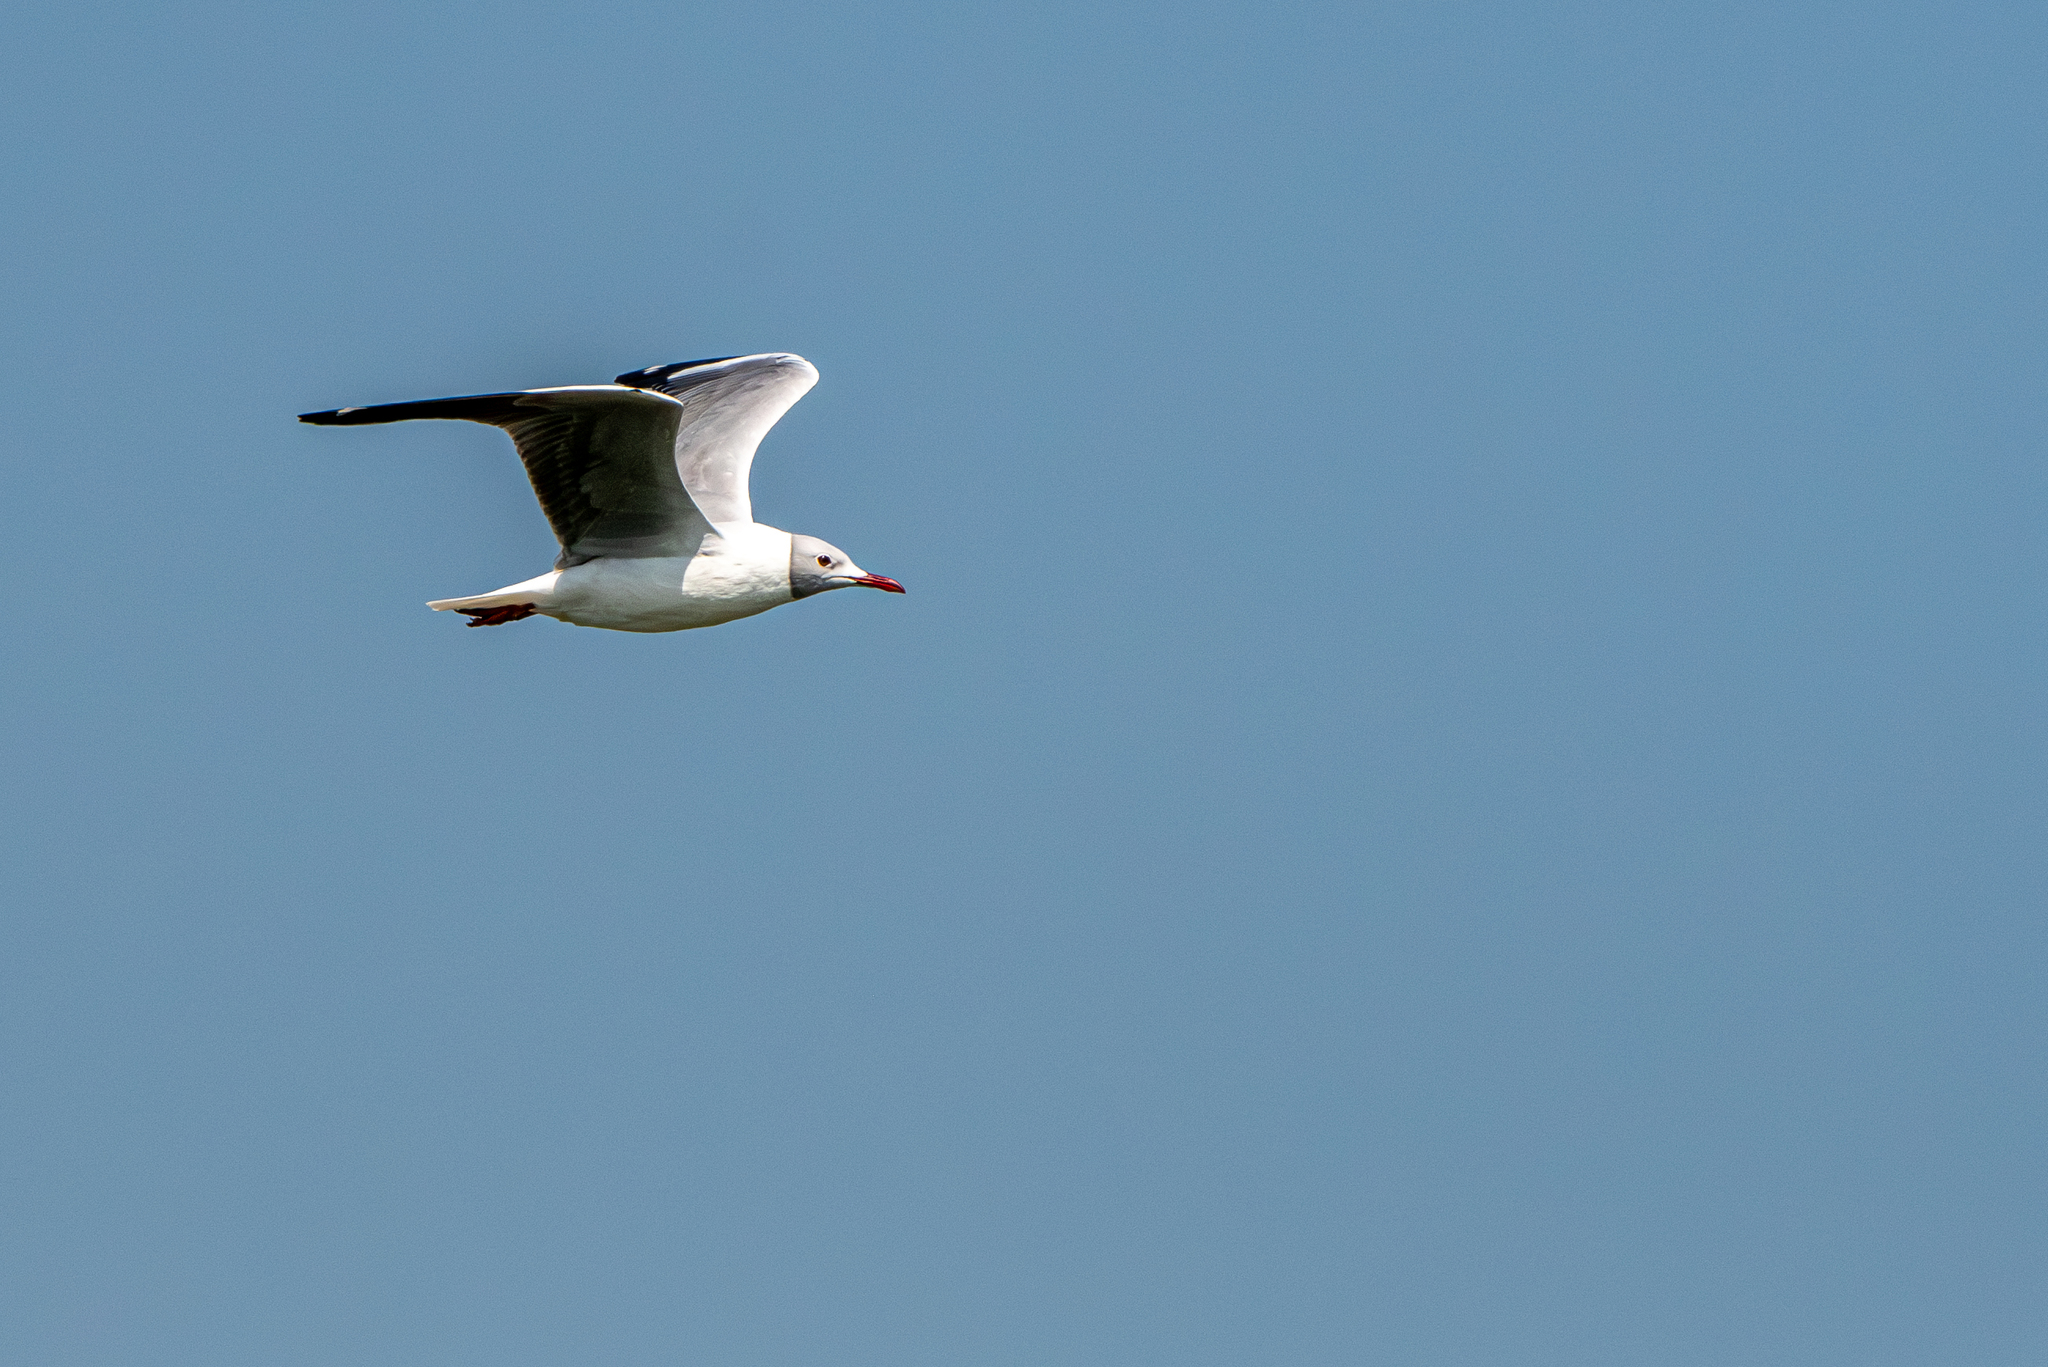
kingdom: Animalia
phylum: Chordata
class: Aves
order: Charadriiformes
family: Laridae
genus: Chroicocephalus
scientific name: Chroicocephalus cirrocephalus
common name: Grey-headed gull
